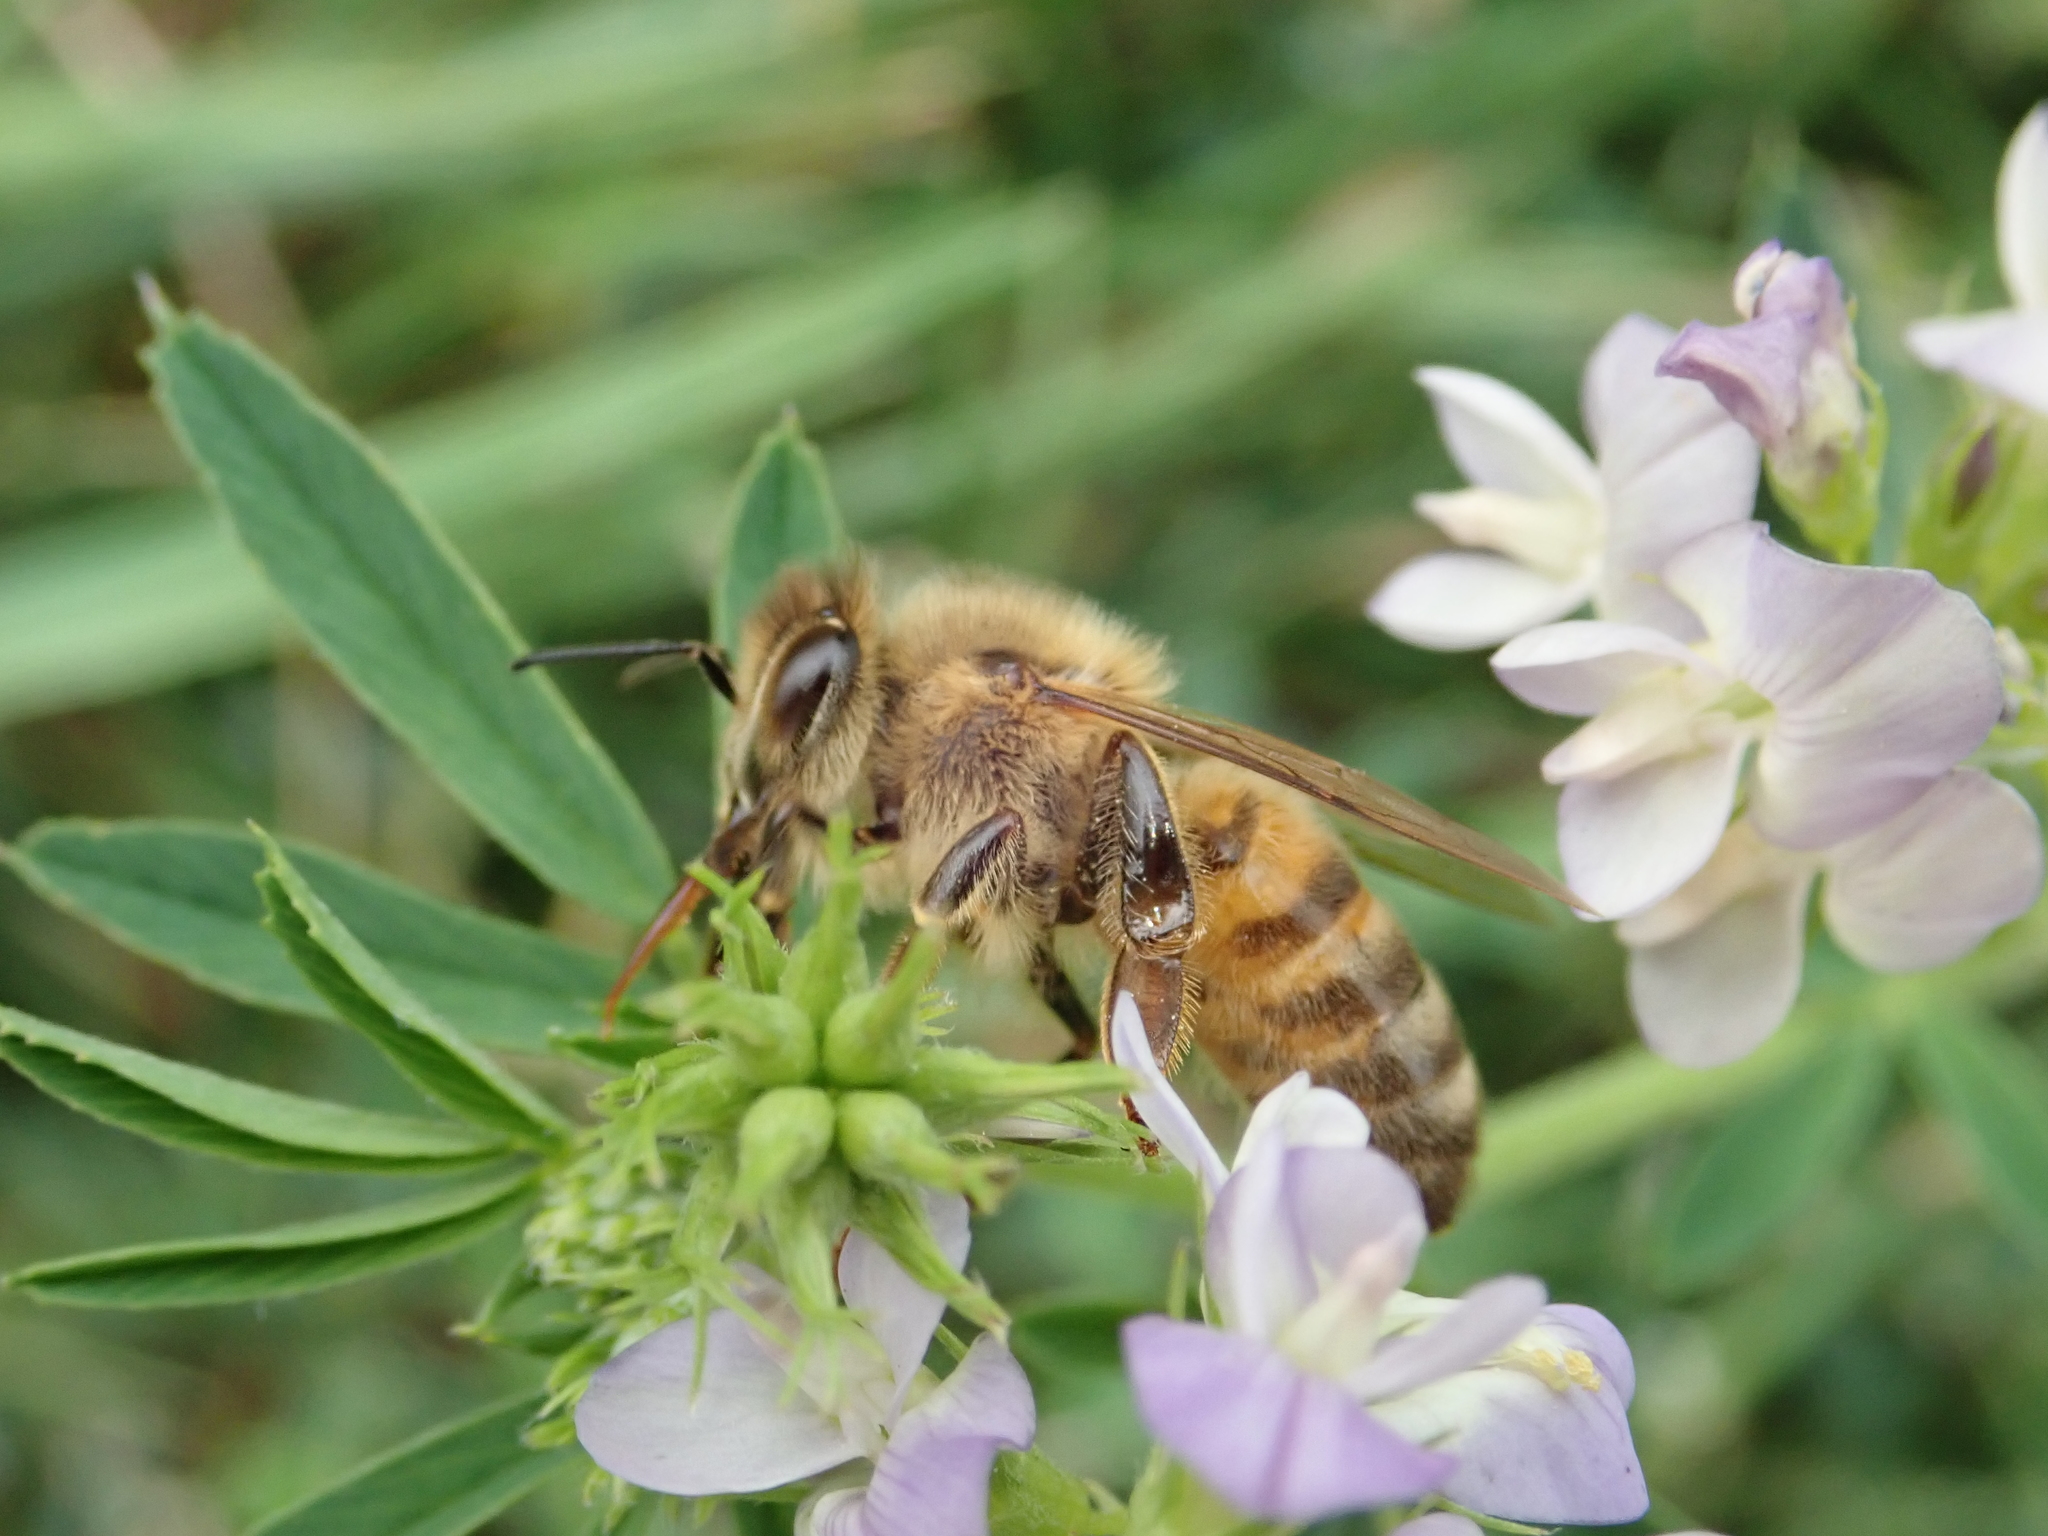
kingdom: Animalia
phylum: Arthropoda
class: Insecta
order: Hymenoptera
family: Apidae
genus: Apis
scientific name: Apis mellifera
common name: Honey bee
